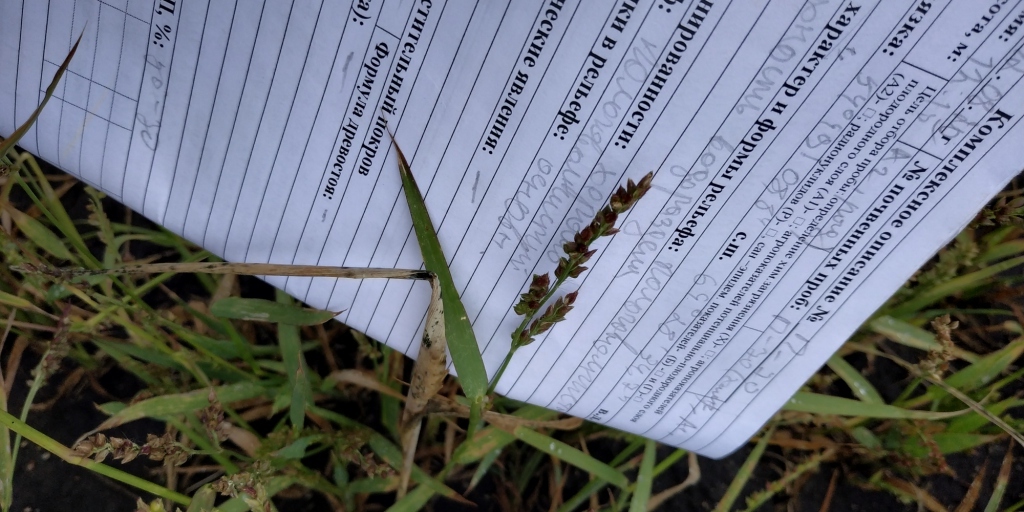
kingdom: Plantae
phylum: Tracheophyta
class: Liliopsida
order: Poales
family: Poaceae
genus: Echinochloa
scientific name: Echinochloa crus-galli
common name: Cockspur
